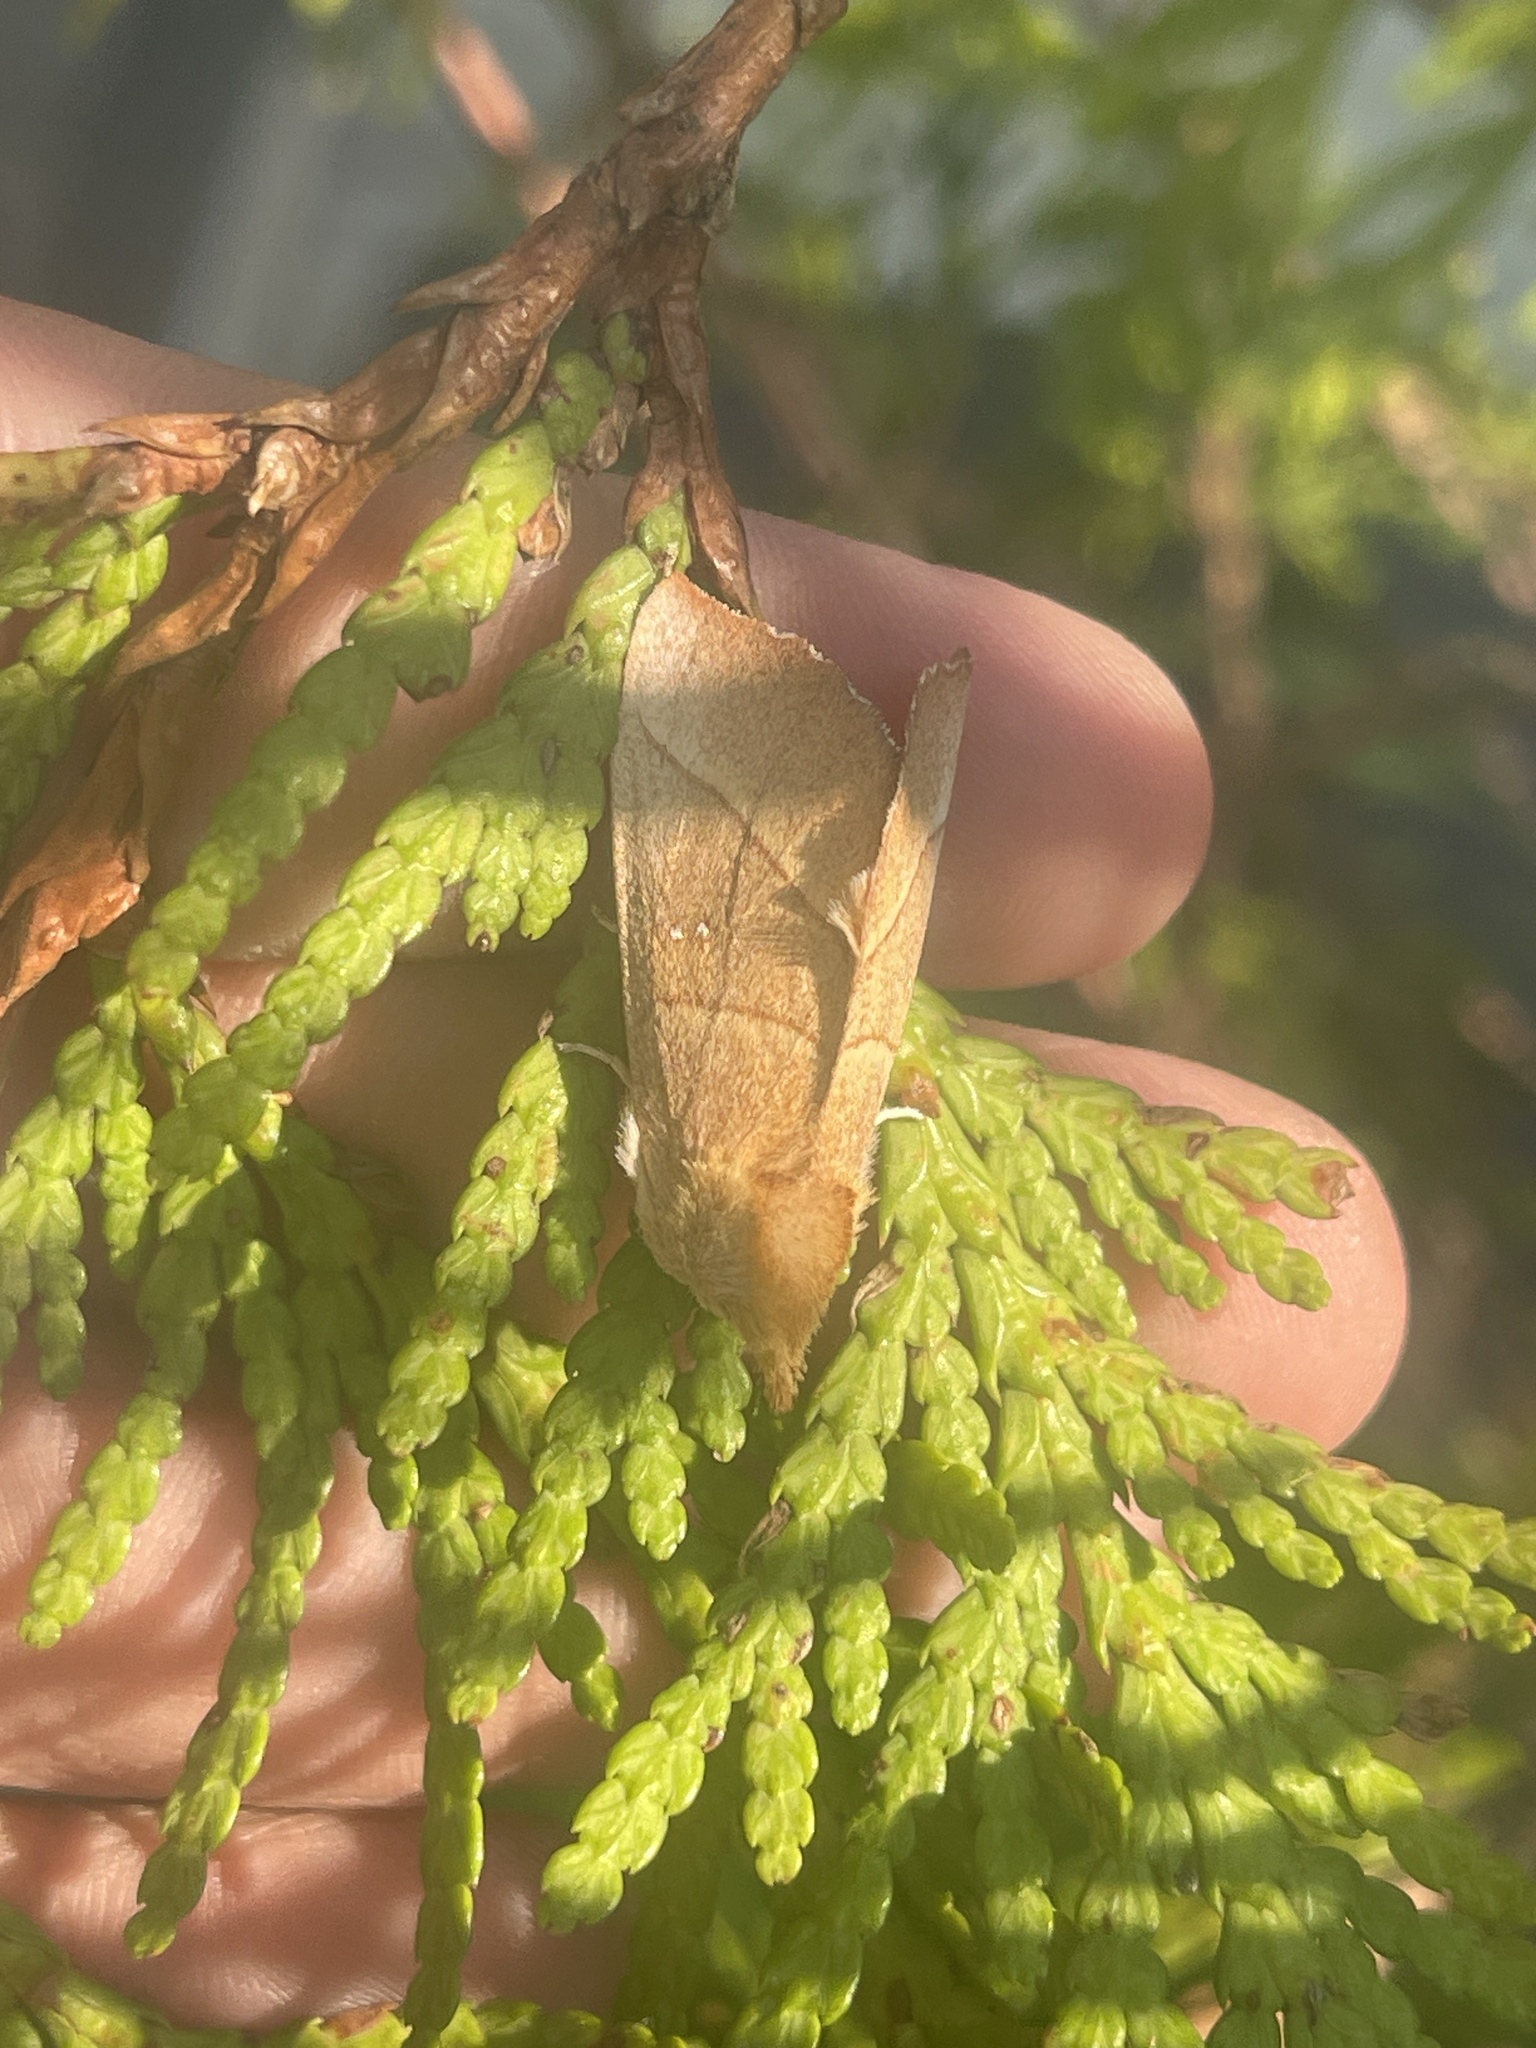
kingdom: Animalia
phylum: Arthropoda
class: Insecta
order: Lepidoptera
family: Notodontidae
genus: Nadata
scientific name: Nadata gibbosa
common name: White-dotted prominent
